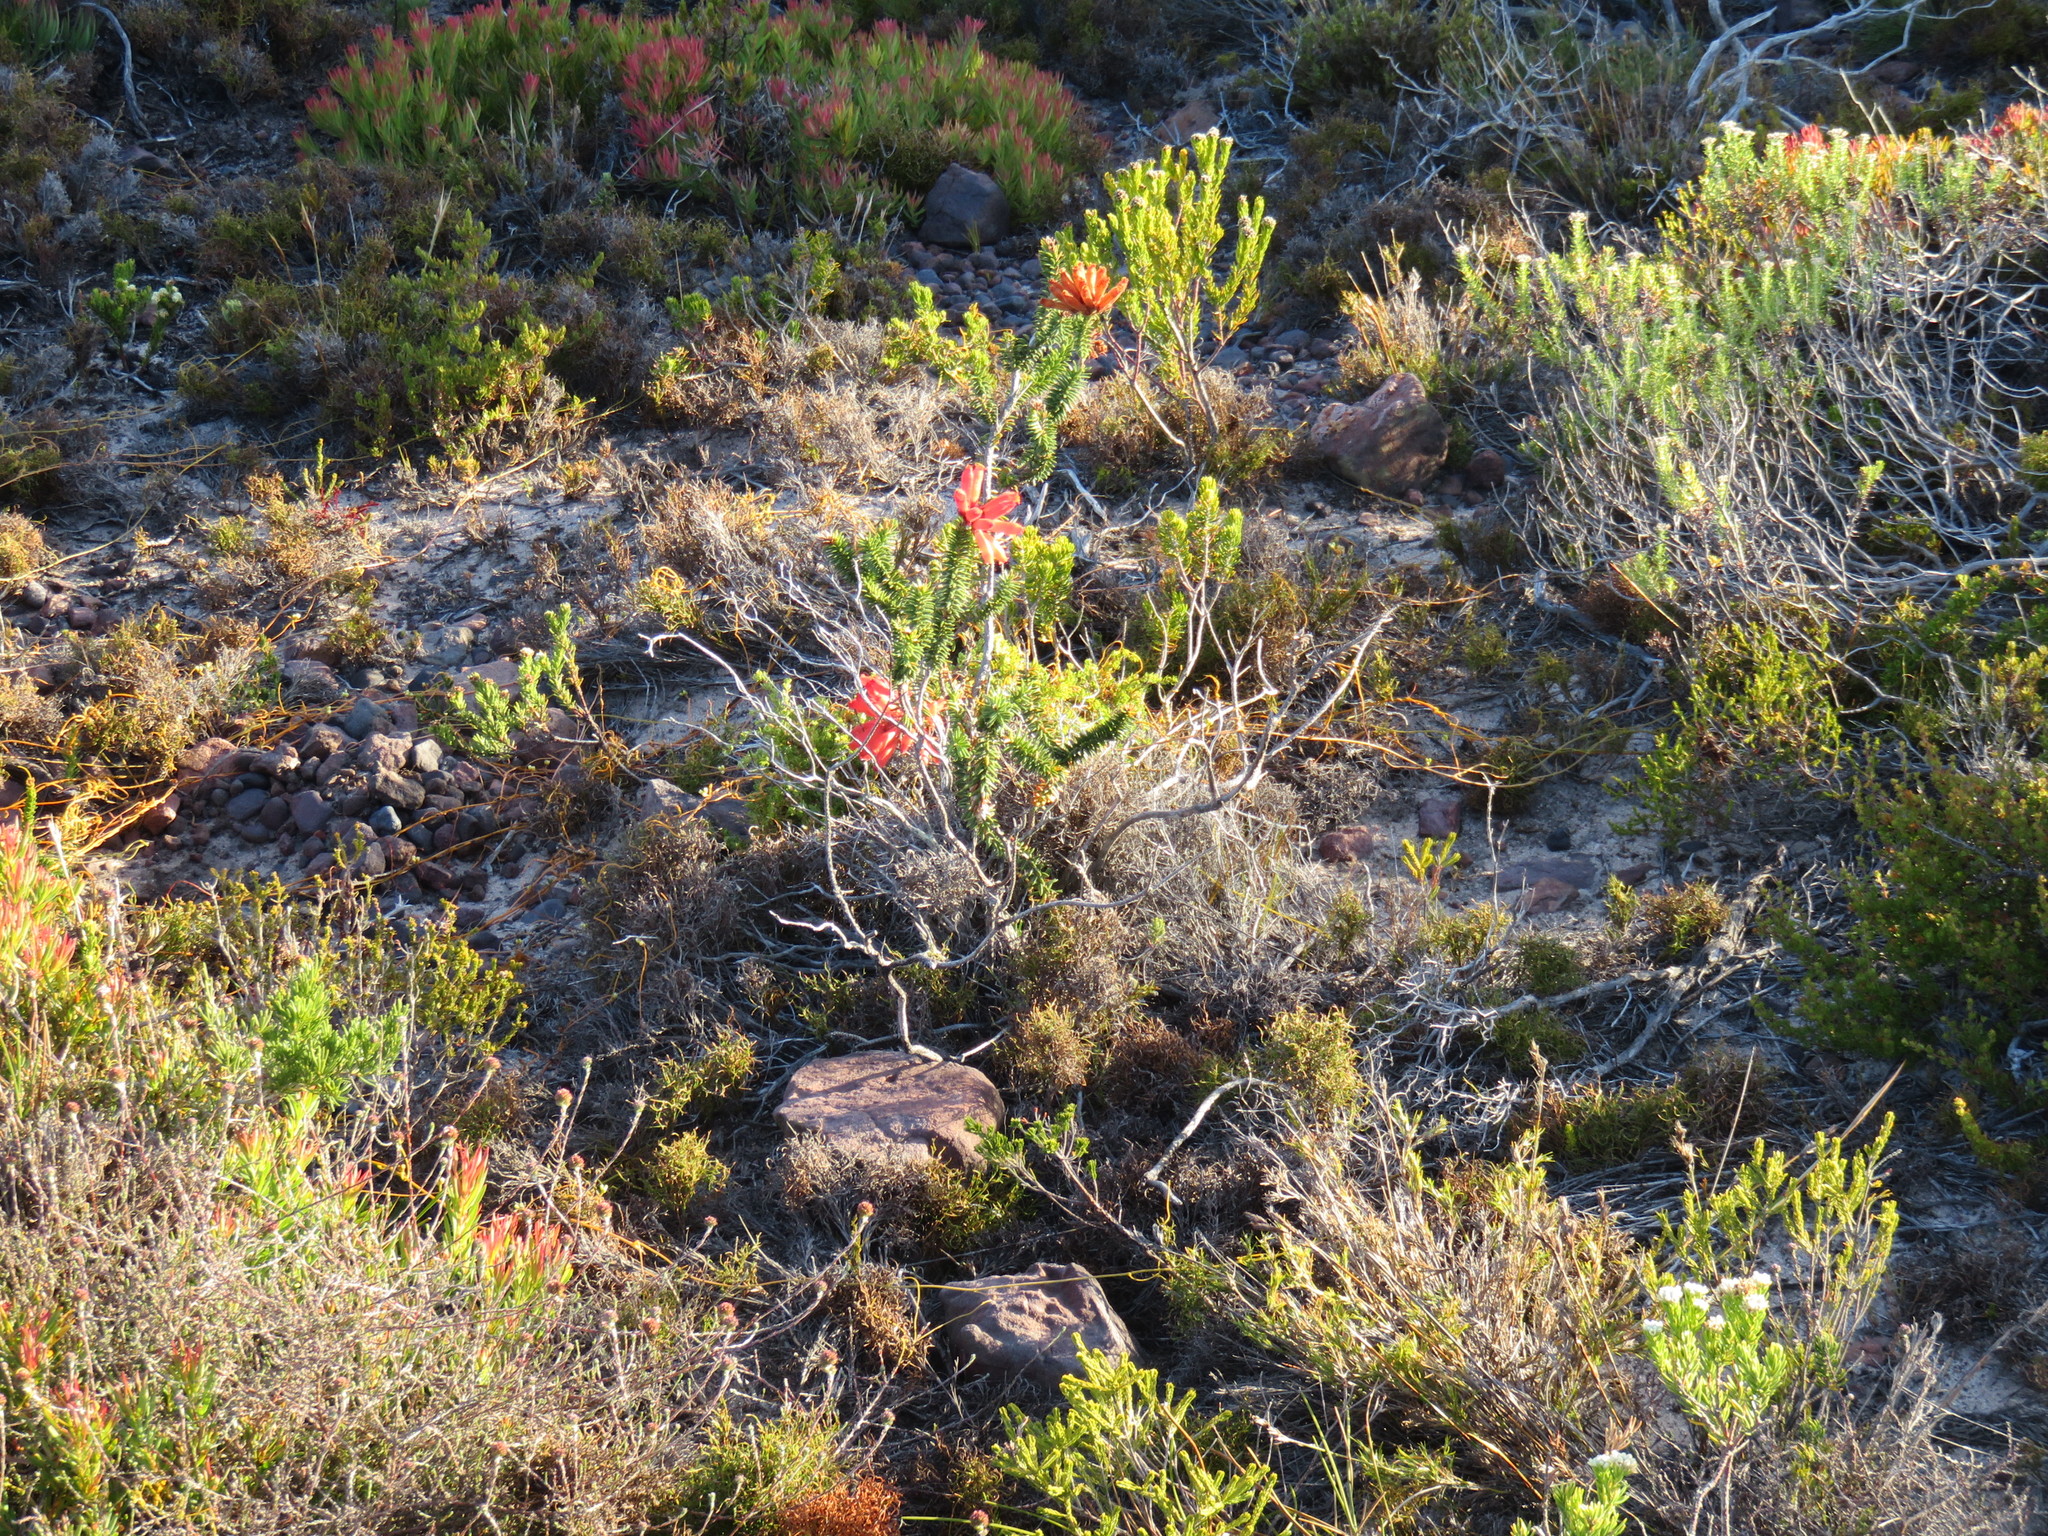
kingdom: Plantae
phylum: Tracheophyta
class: Magnoliopsida
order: Ericales
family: Ericaceae
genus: Erica
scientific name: Erica cerinthoides
